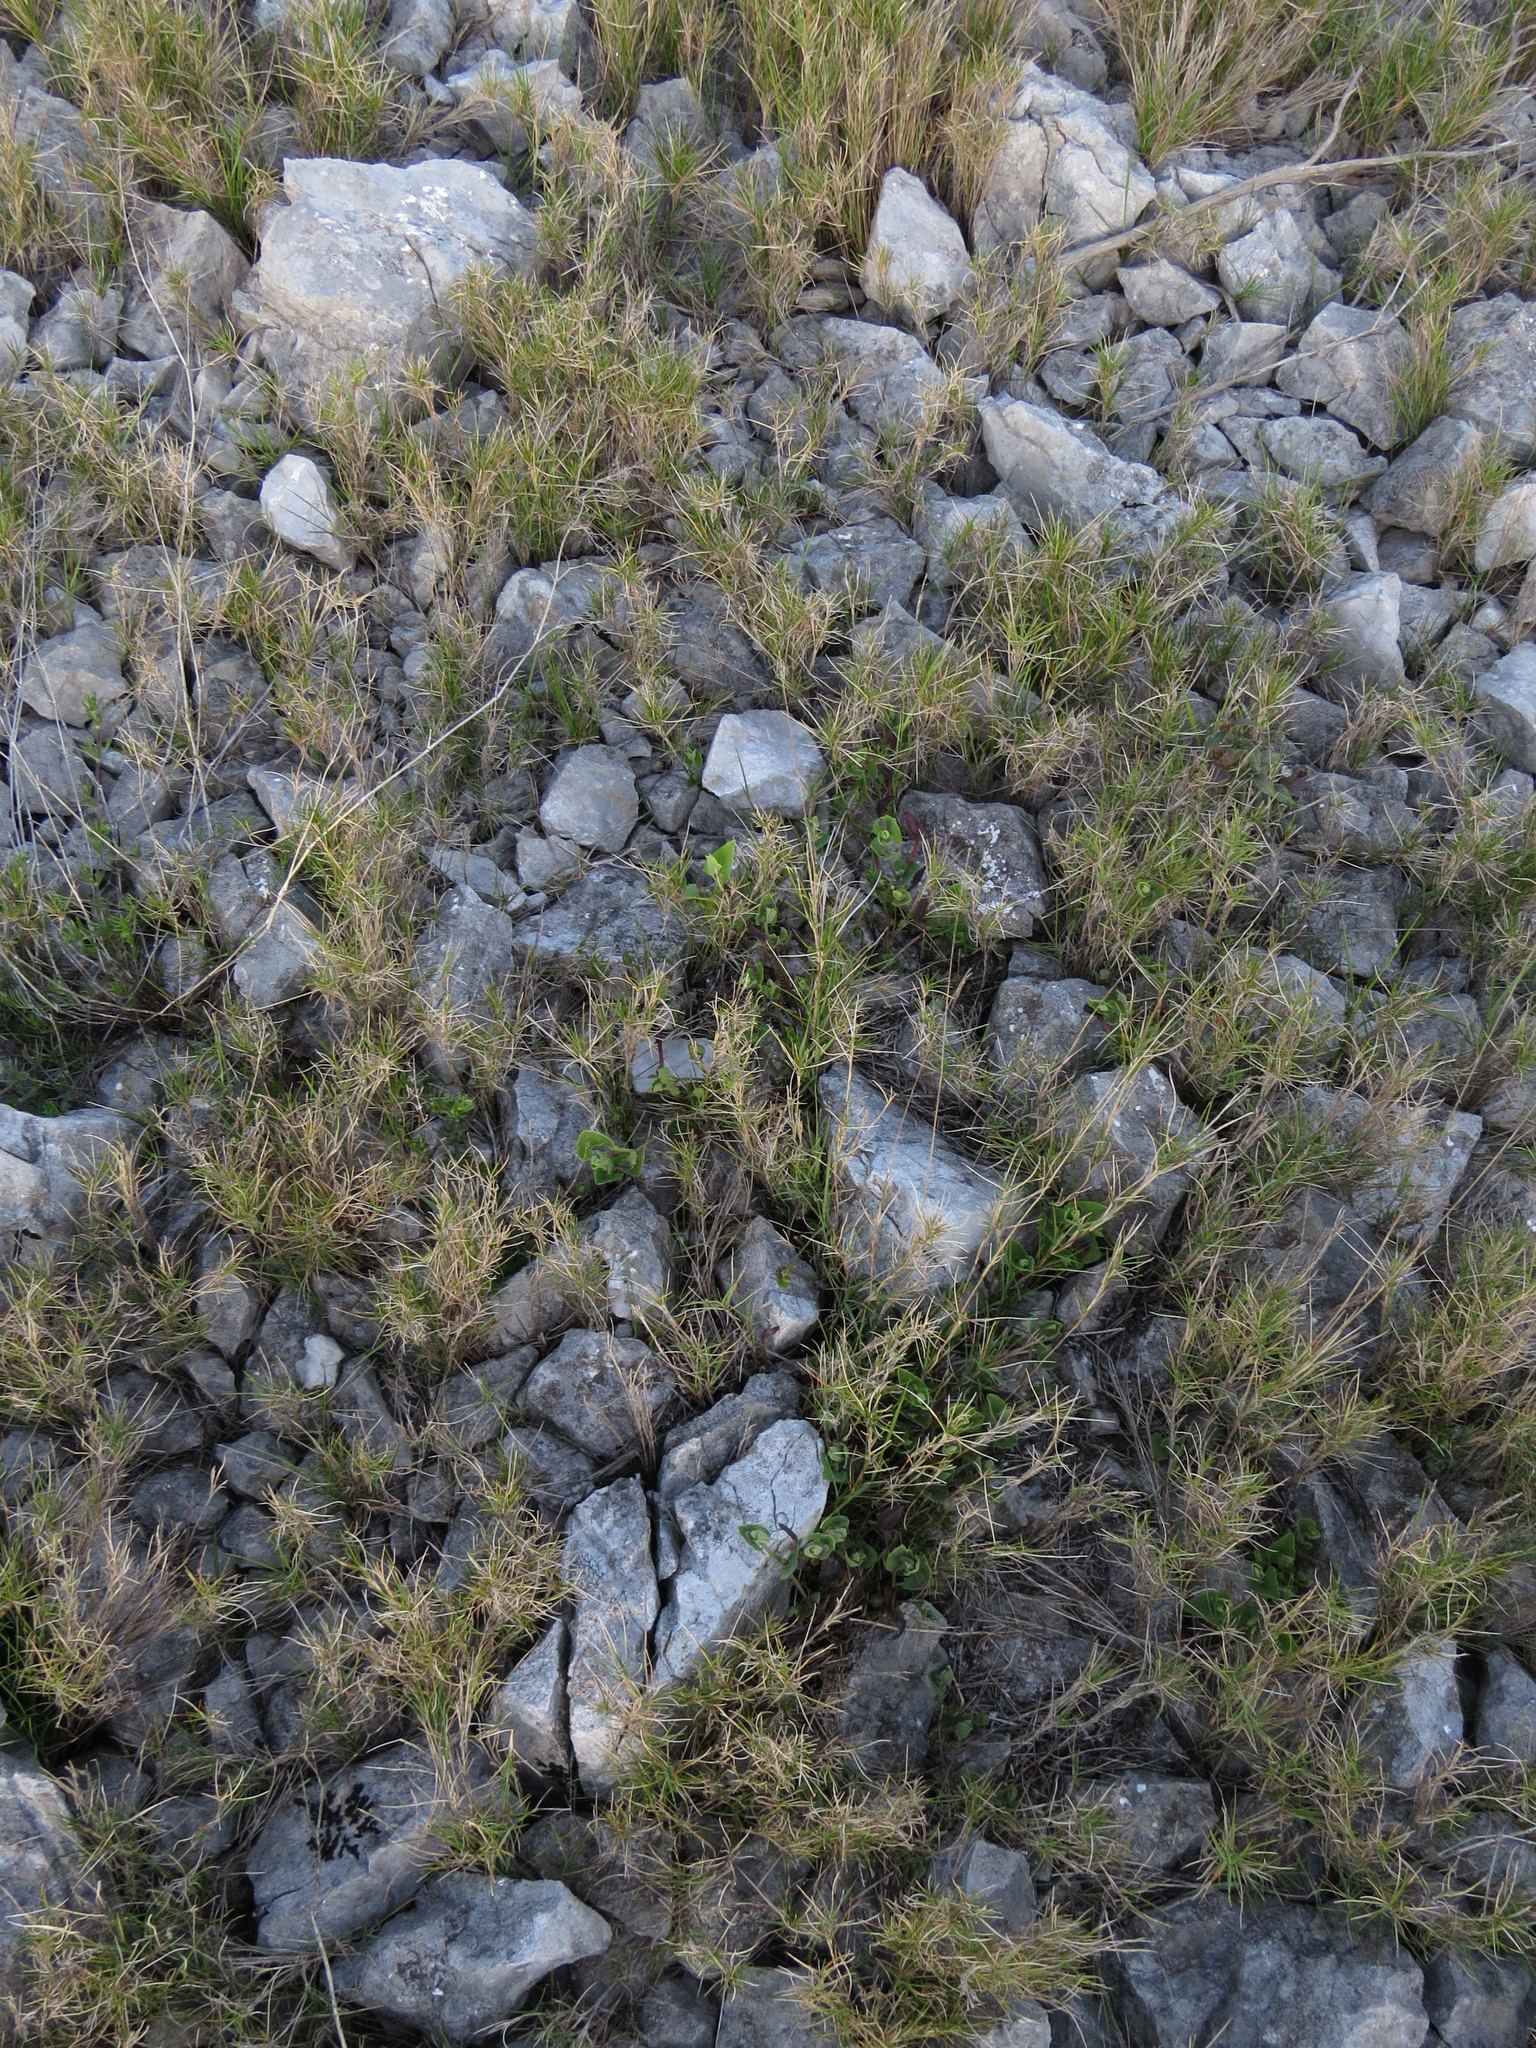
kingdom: Plantae
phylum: Tracheophyta
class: Liliopsida
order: Poales
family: Poaceae
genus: Brachypodium
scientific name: Brachypodium retusum
